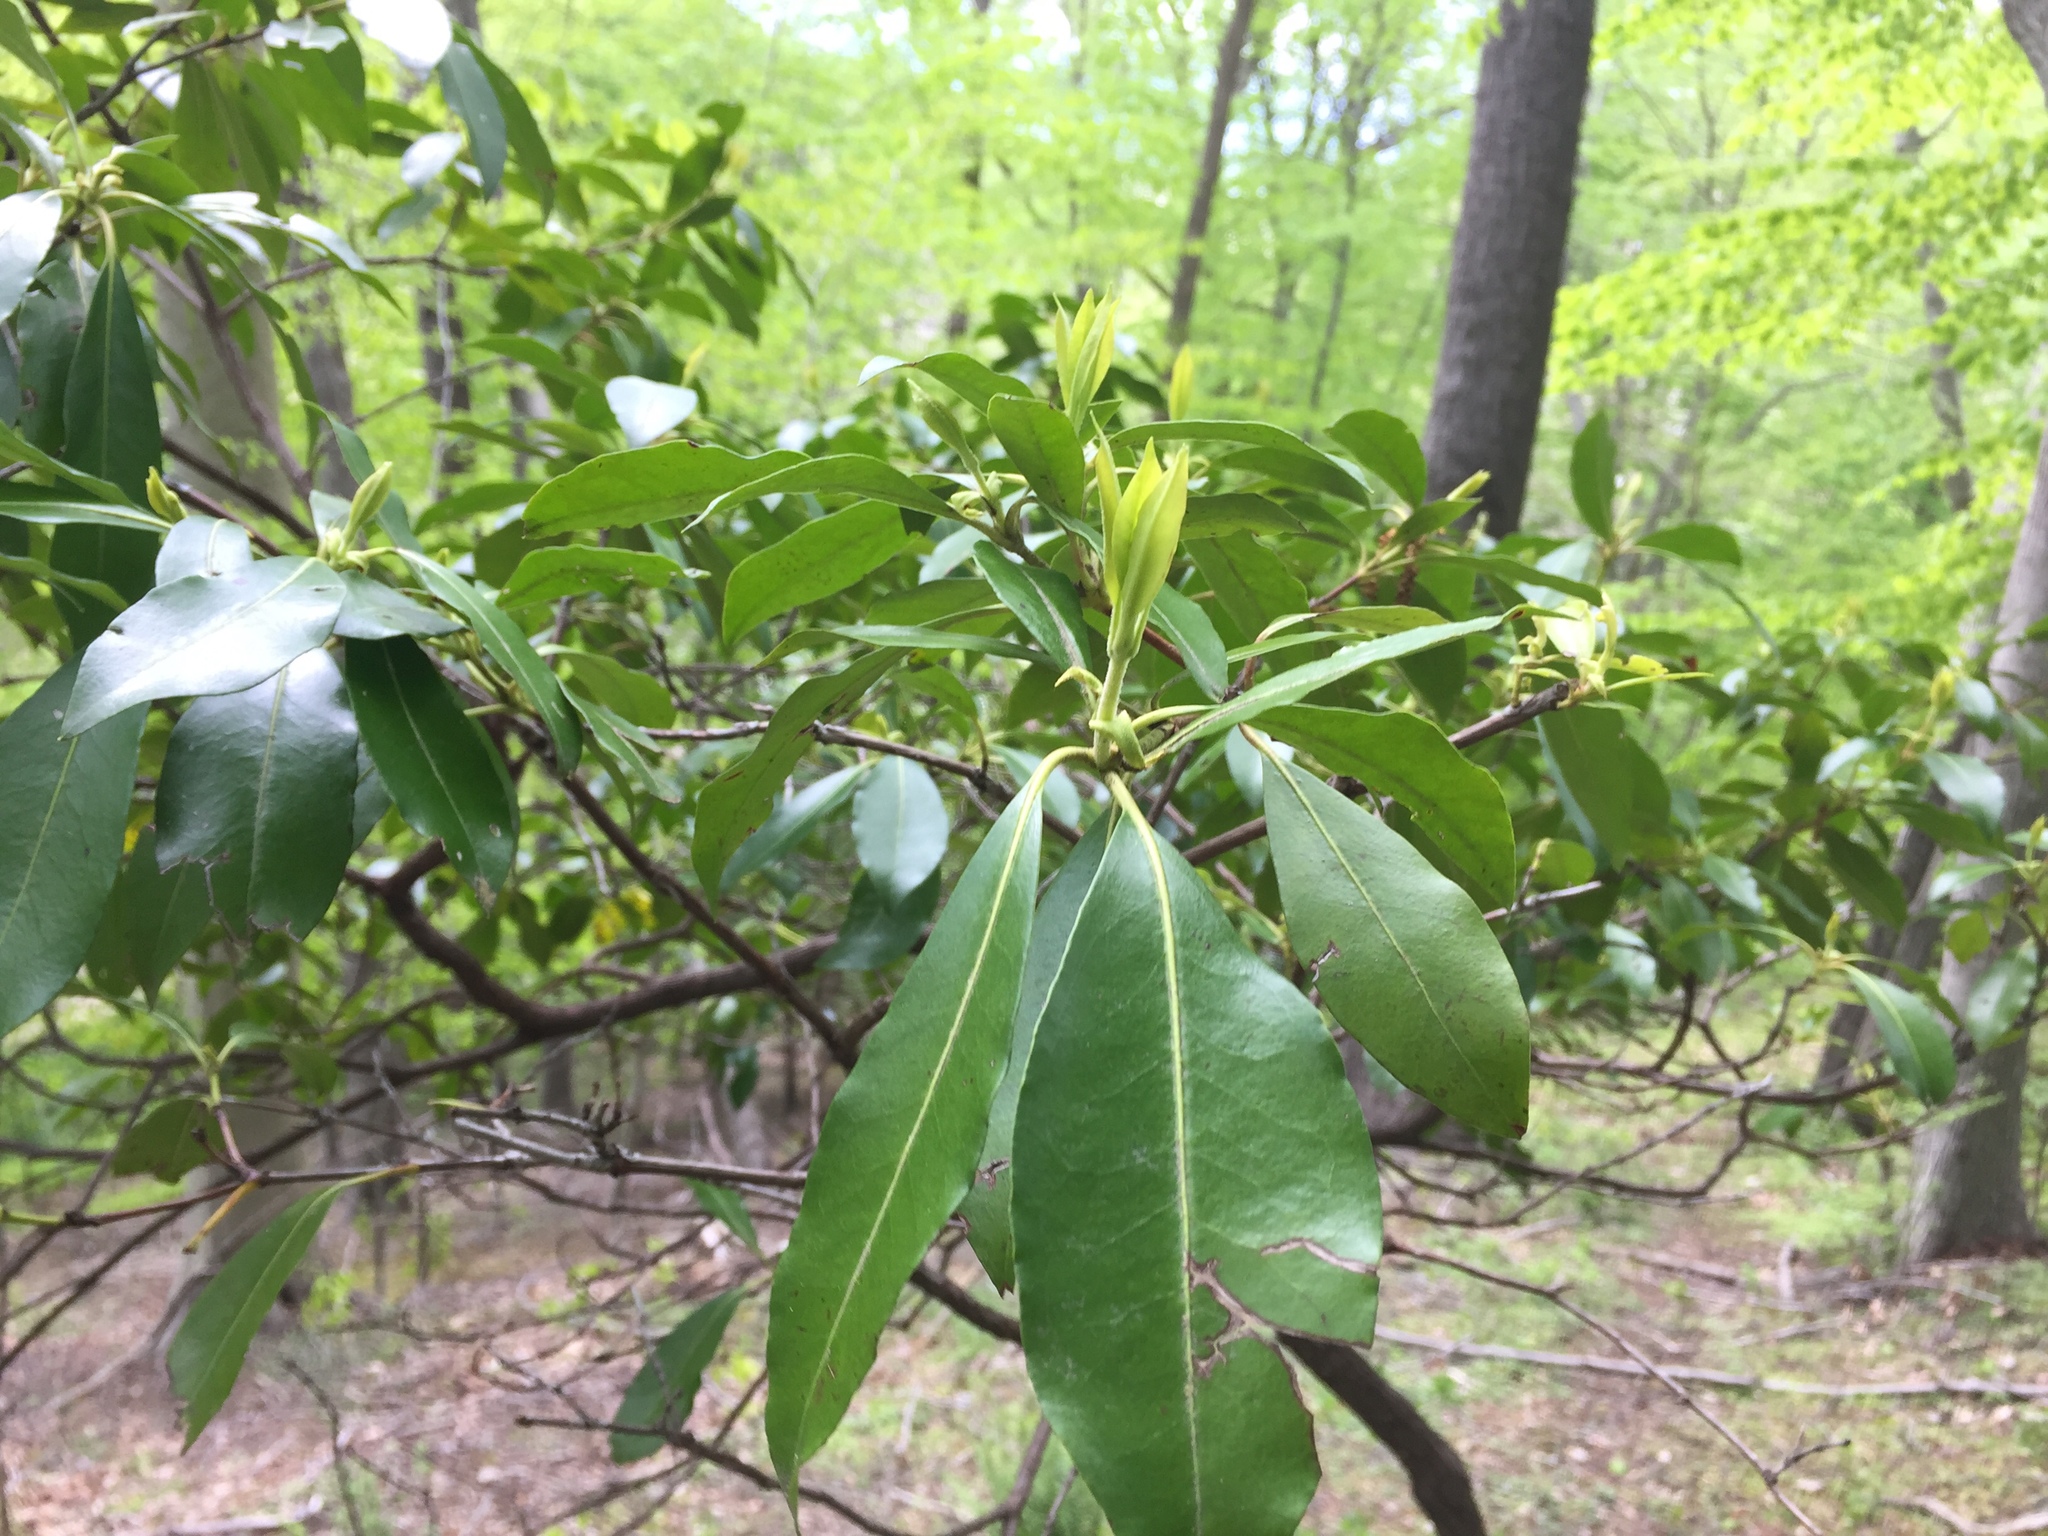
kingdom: Plantae
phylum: Tracheophyta
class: Magnoliopsida
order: Ericales
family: Ericaceae
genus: Kalmia
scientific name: Kalmia latifolia
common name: Mountain-laurel
